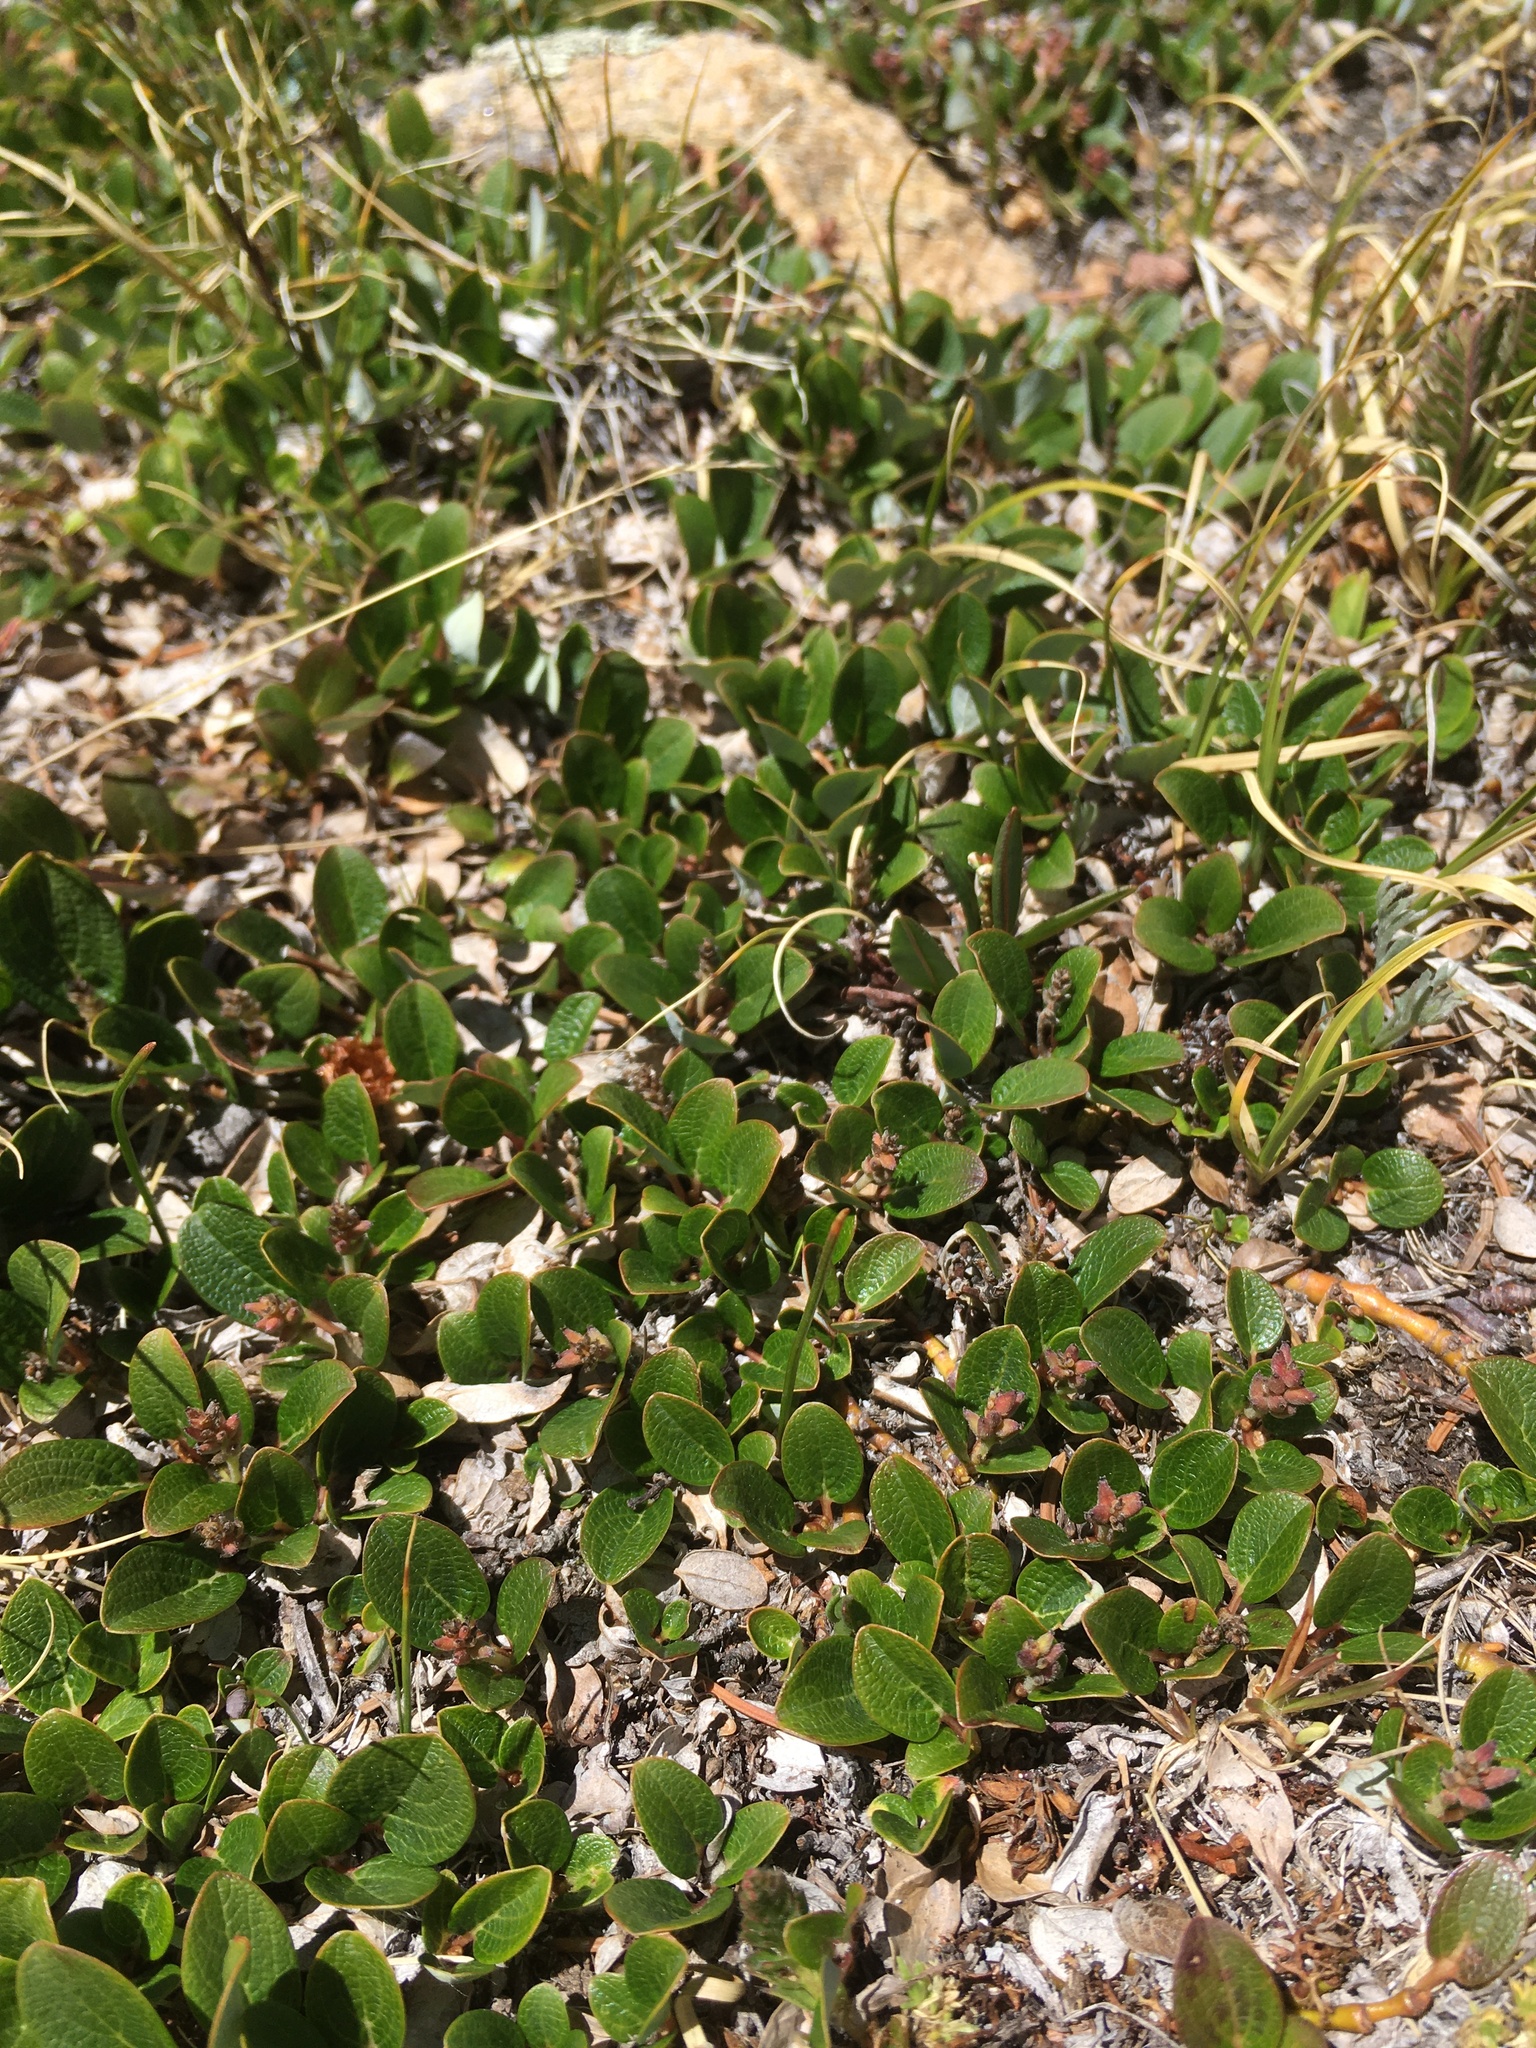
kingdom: Plantae
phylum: Tracheophyta
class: Magnoliopsida
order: Malpighiales
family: Salicaceae
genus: Salix
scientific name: Salix nivalis
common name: Dwarf snow willow
